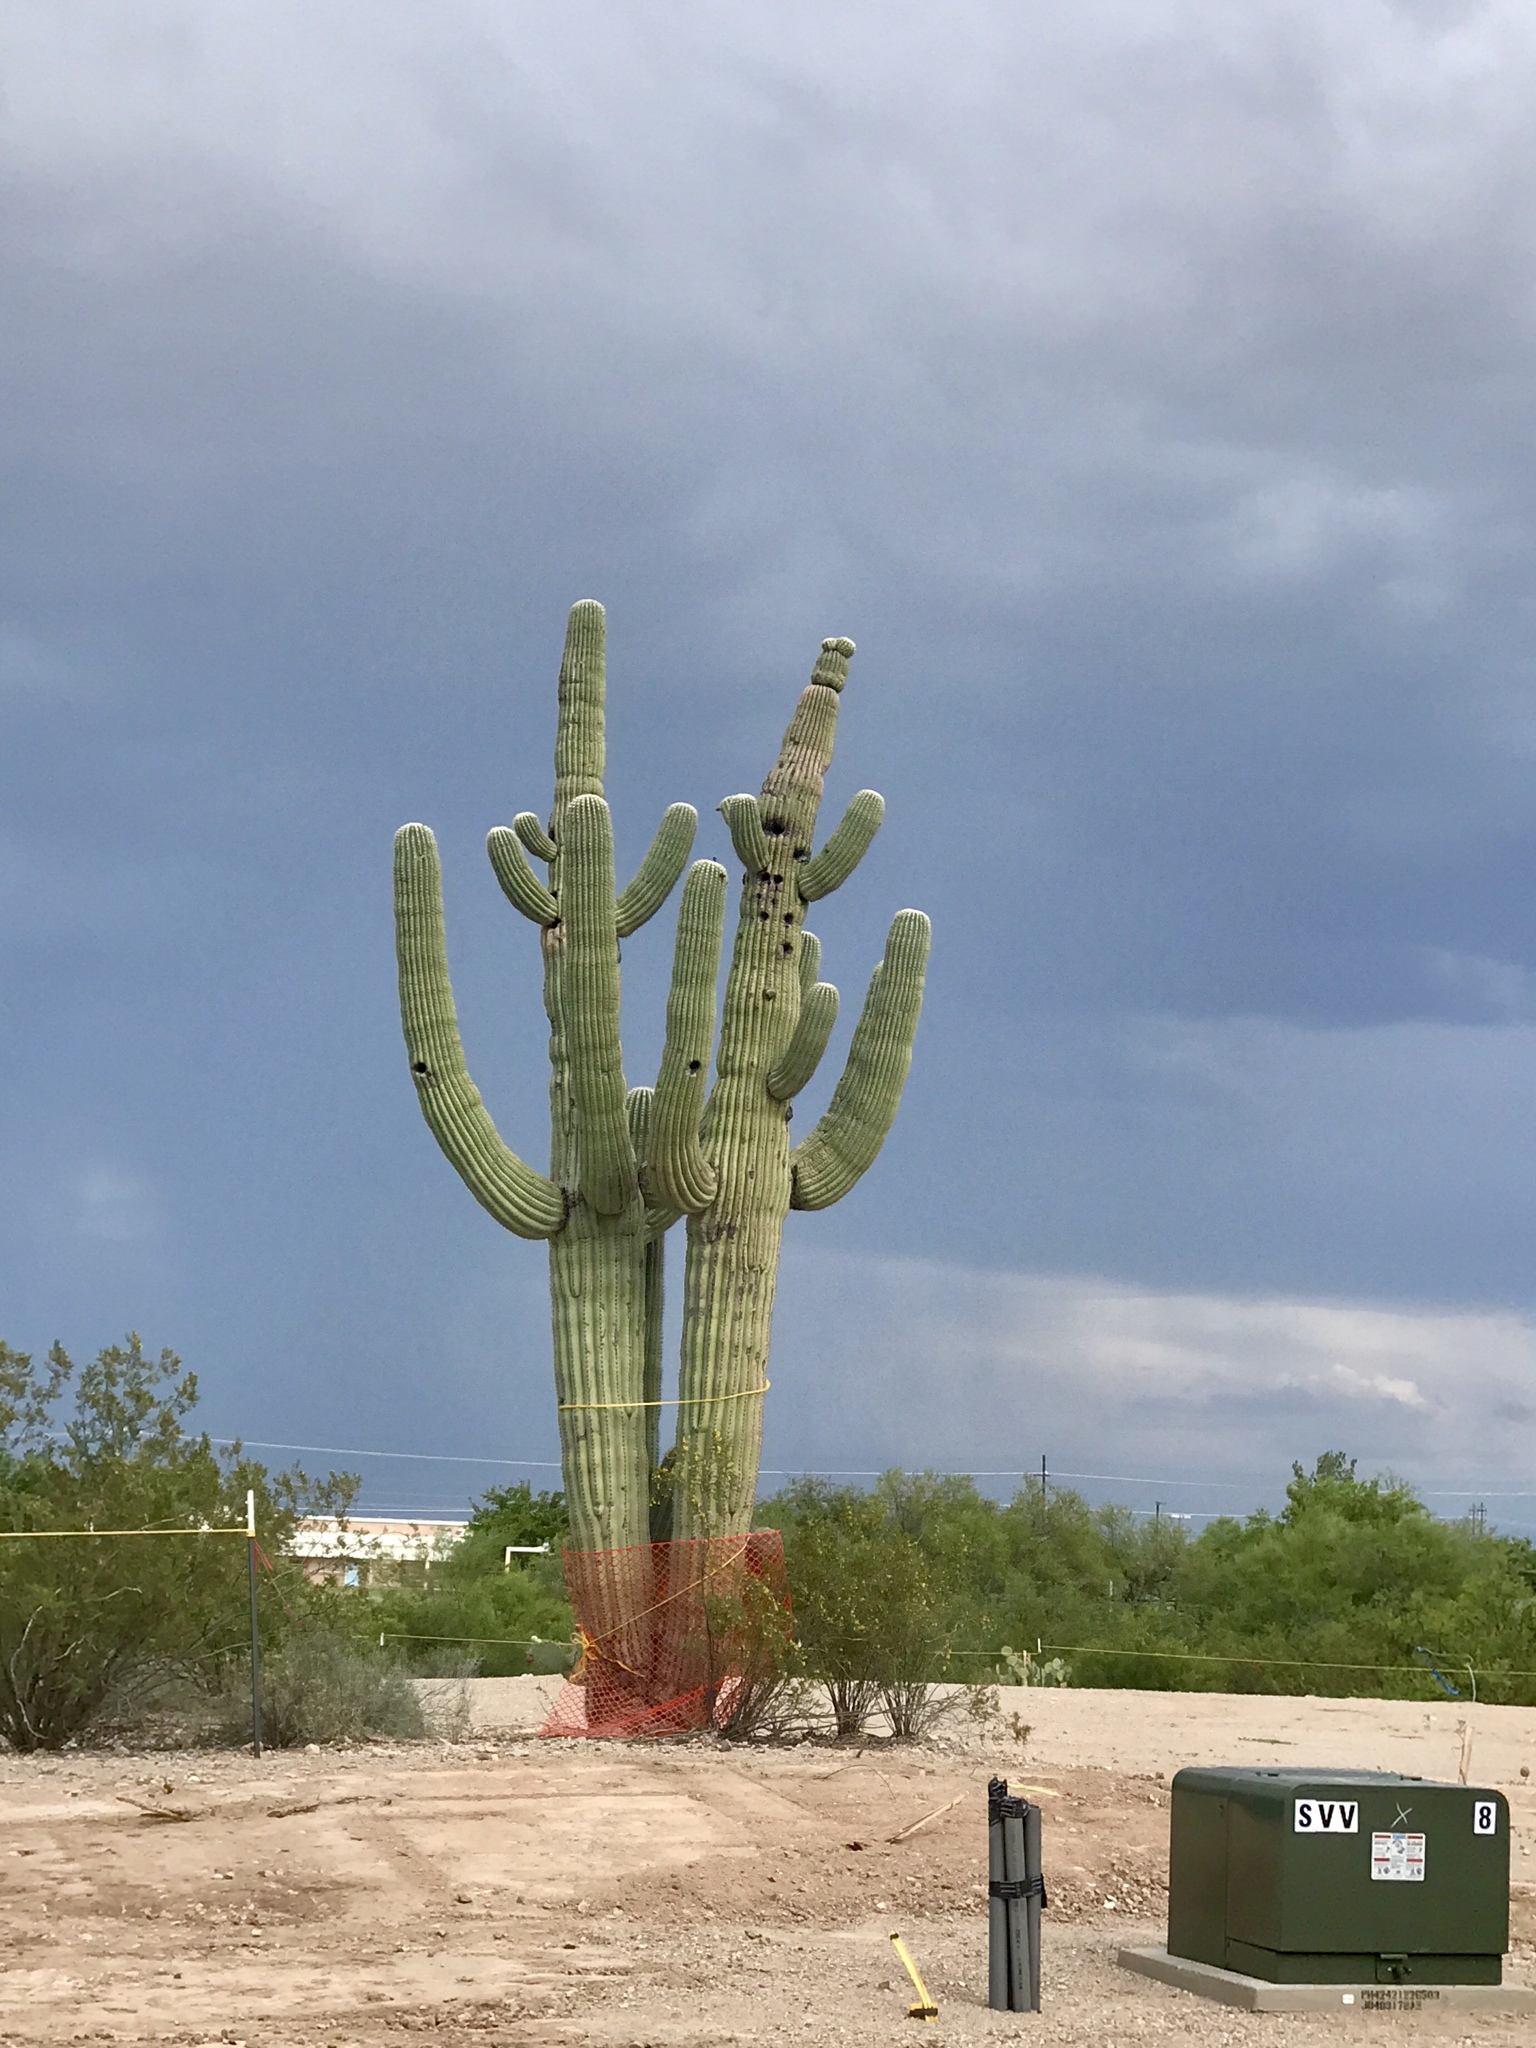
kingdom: Plantae
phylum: Tracheophyta
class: Magnoliopsida
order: Caryophyllales
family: Cactaceae
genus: Carnegiea
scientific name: Carnegiea gigantea
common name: Saguaro
